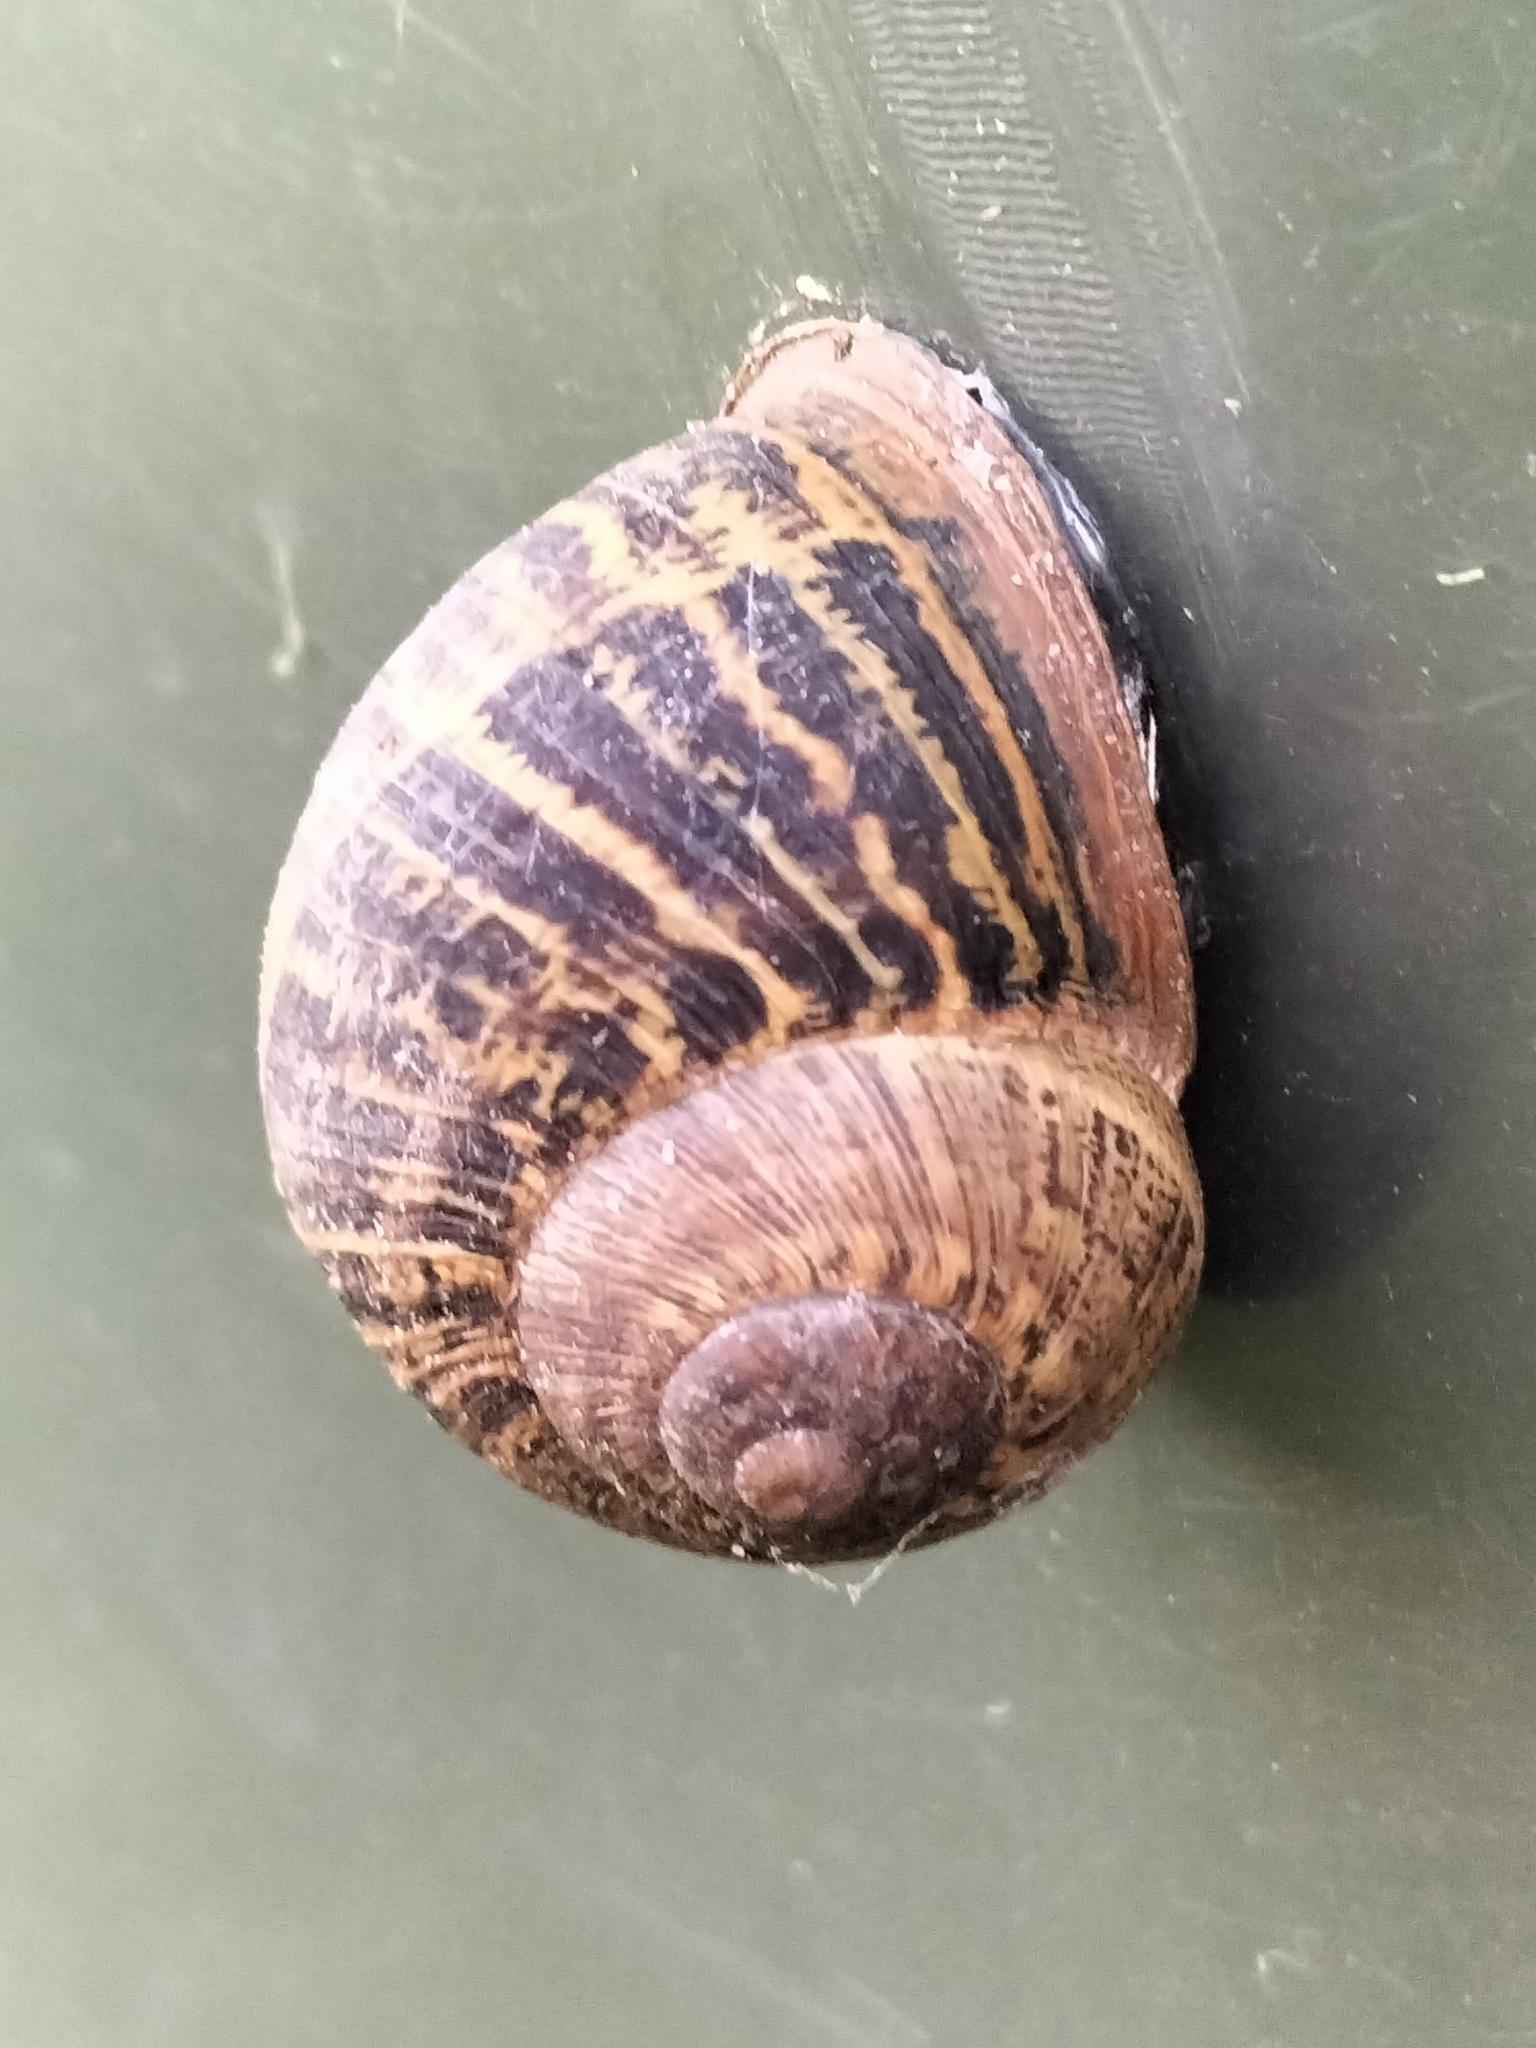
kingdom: Animalia
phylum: Mollusca
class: Gastropoda
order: Stylommatophora
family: Helicidae
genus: Cornu
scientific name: Cornu aspersum
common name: Brown garden snail
